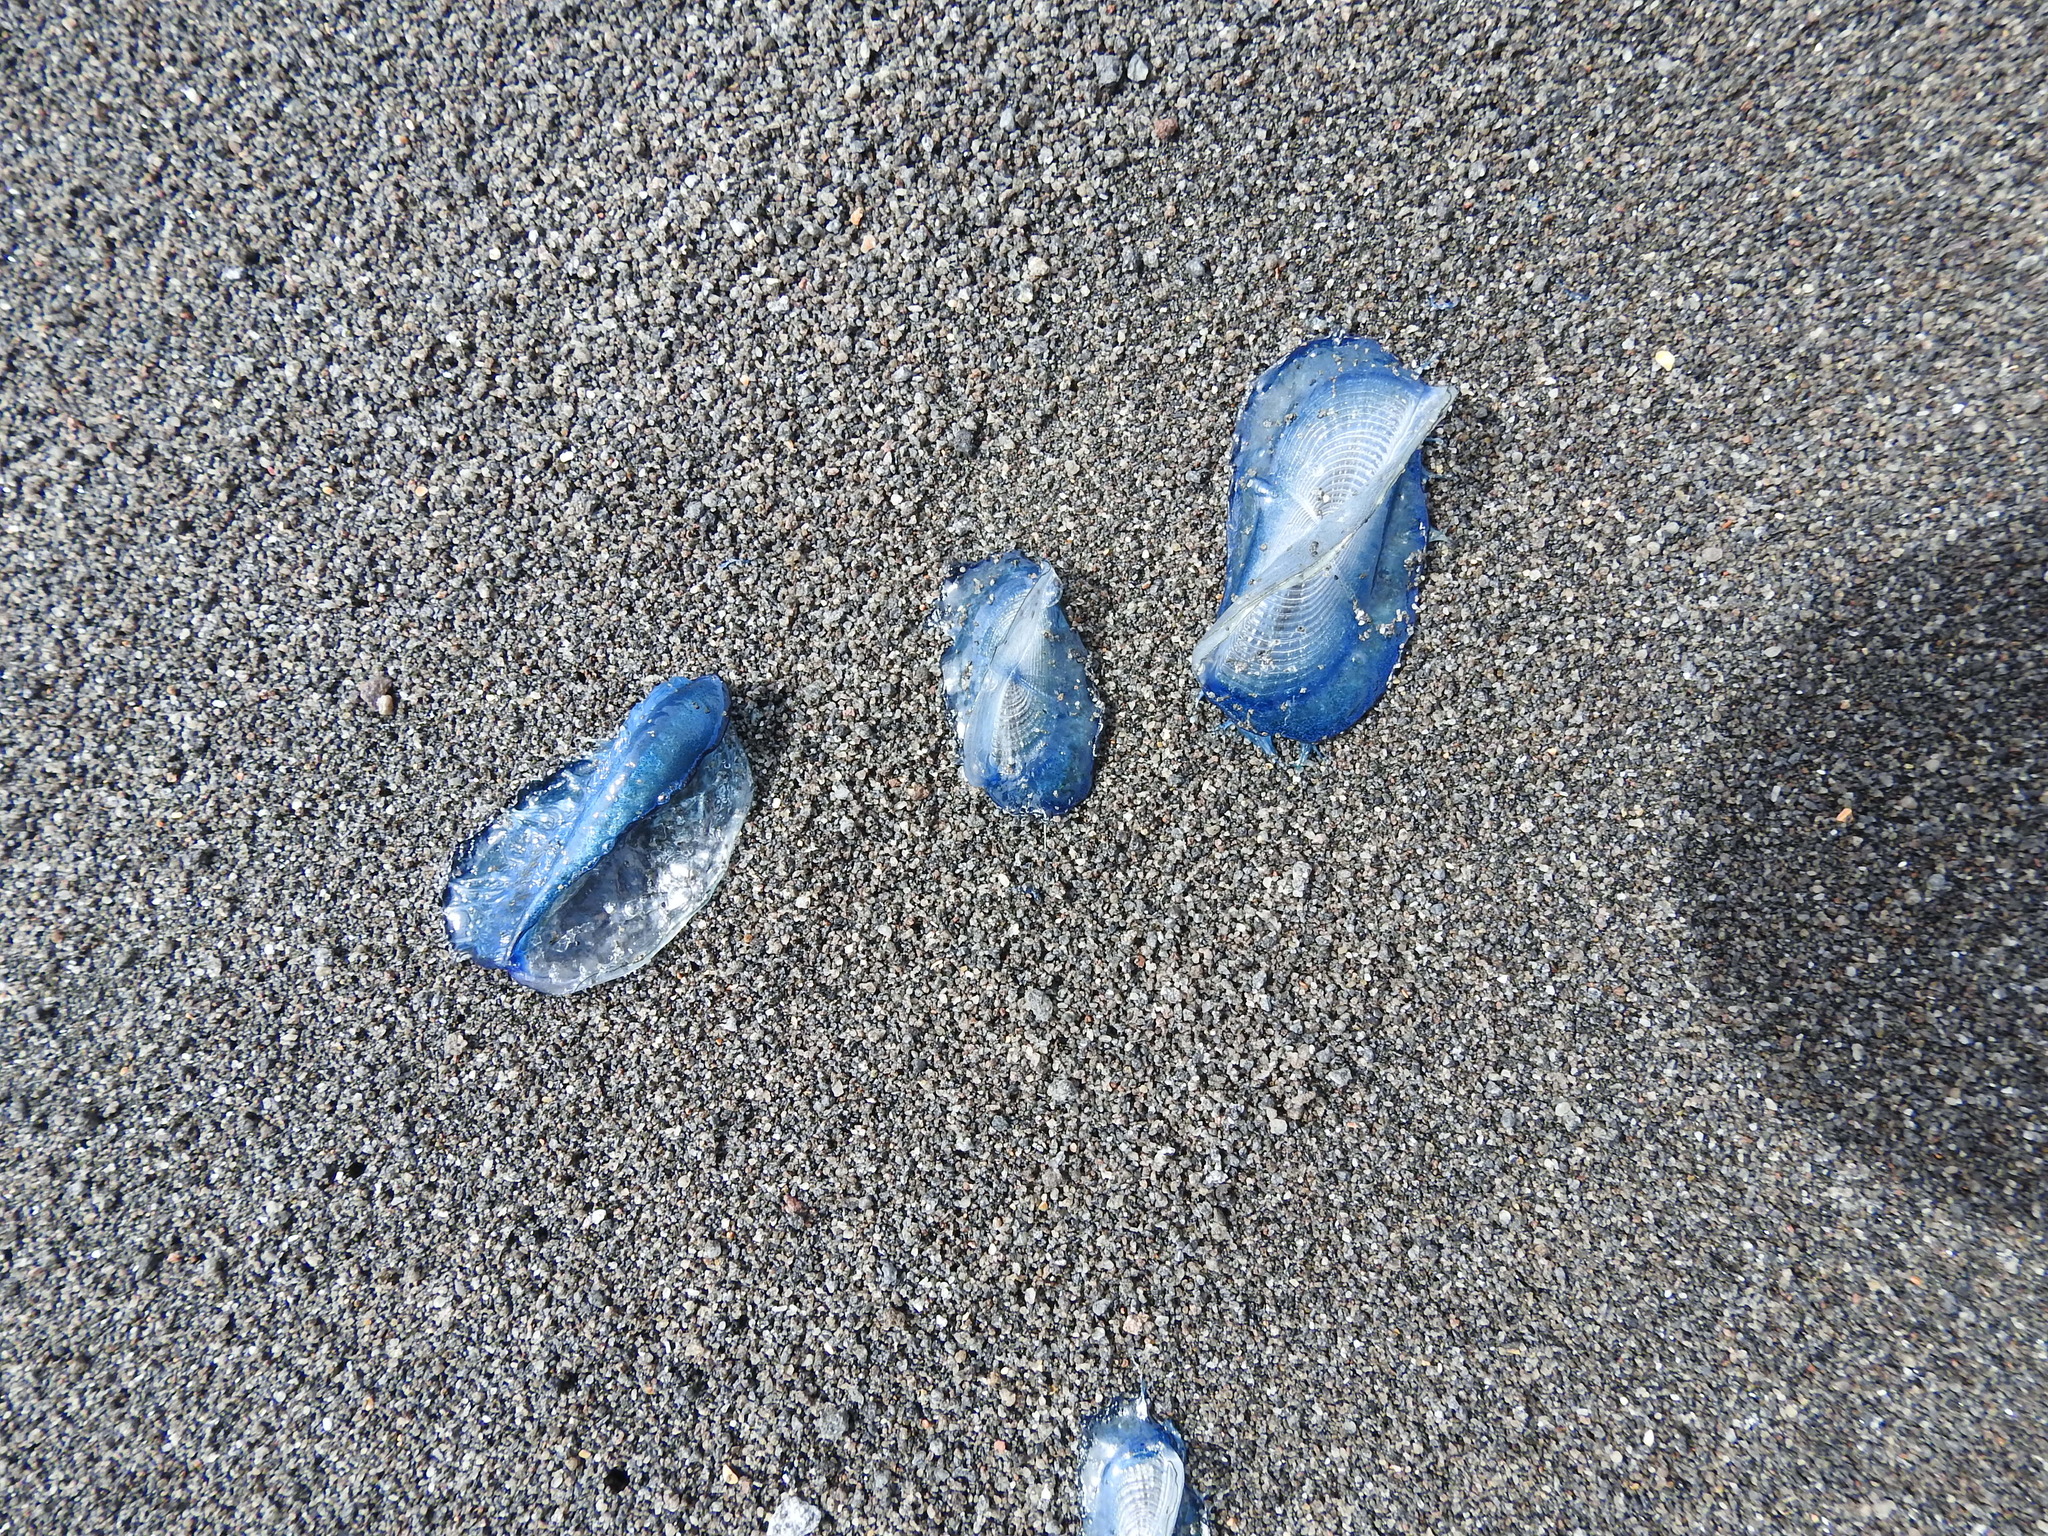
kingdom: Animalia
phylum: Cnidaria
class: Hydrozoa
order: Anthoathecata
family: Porpitidae
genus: Velella
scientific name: Velella velella
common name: By-the-wind-sailor
